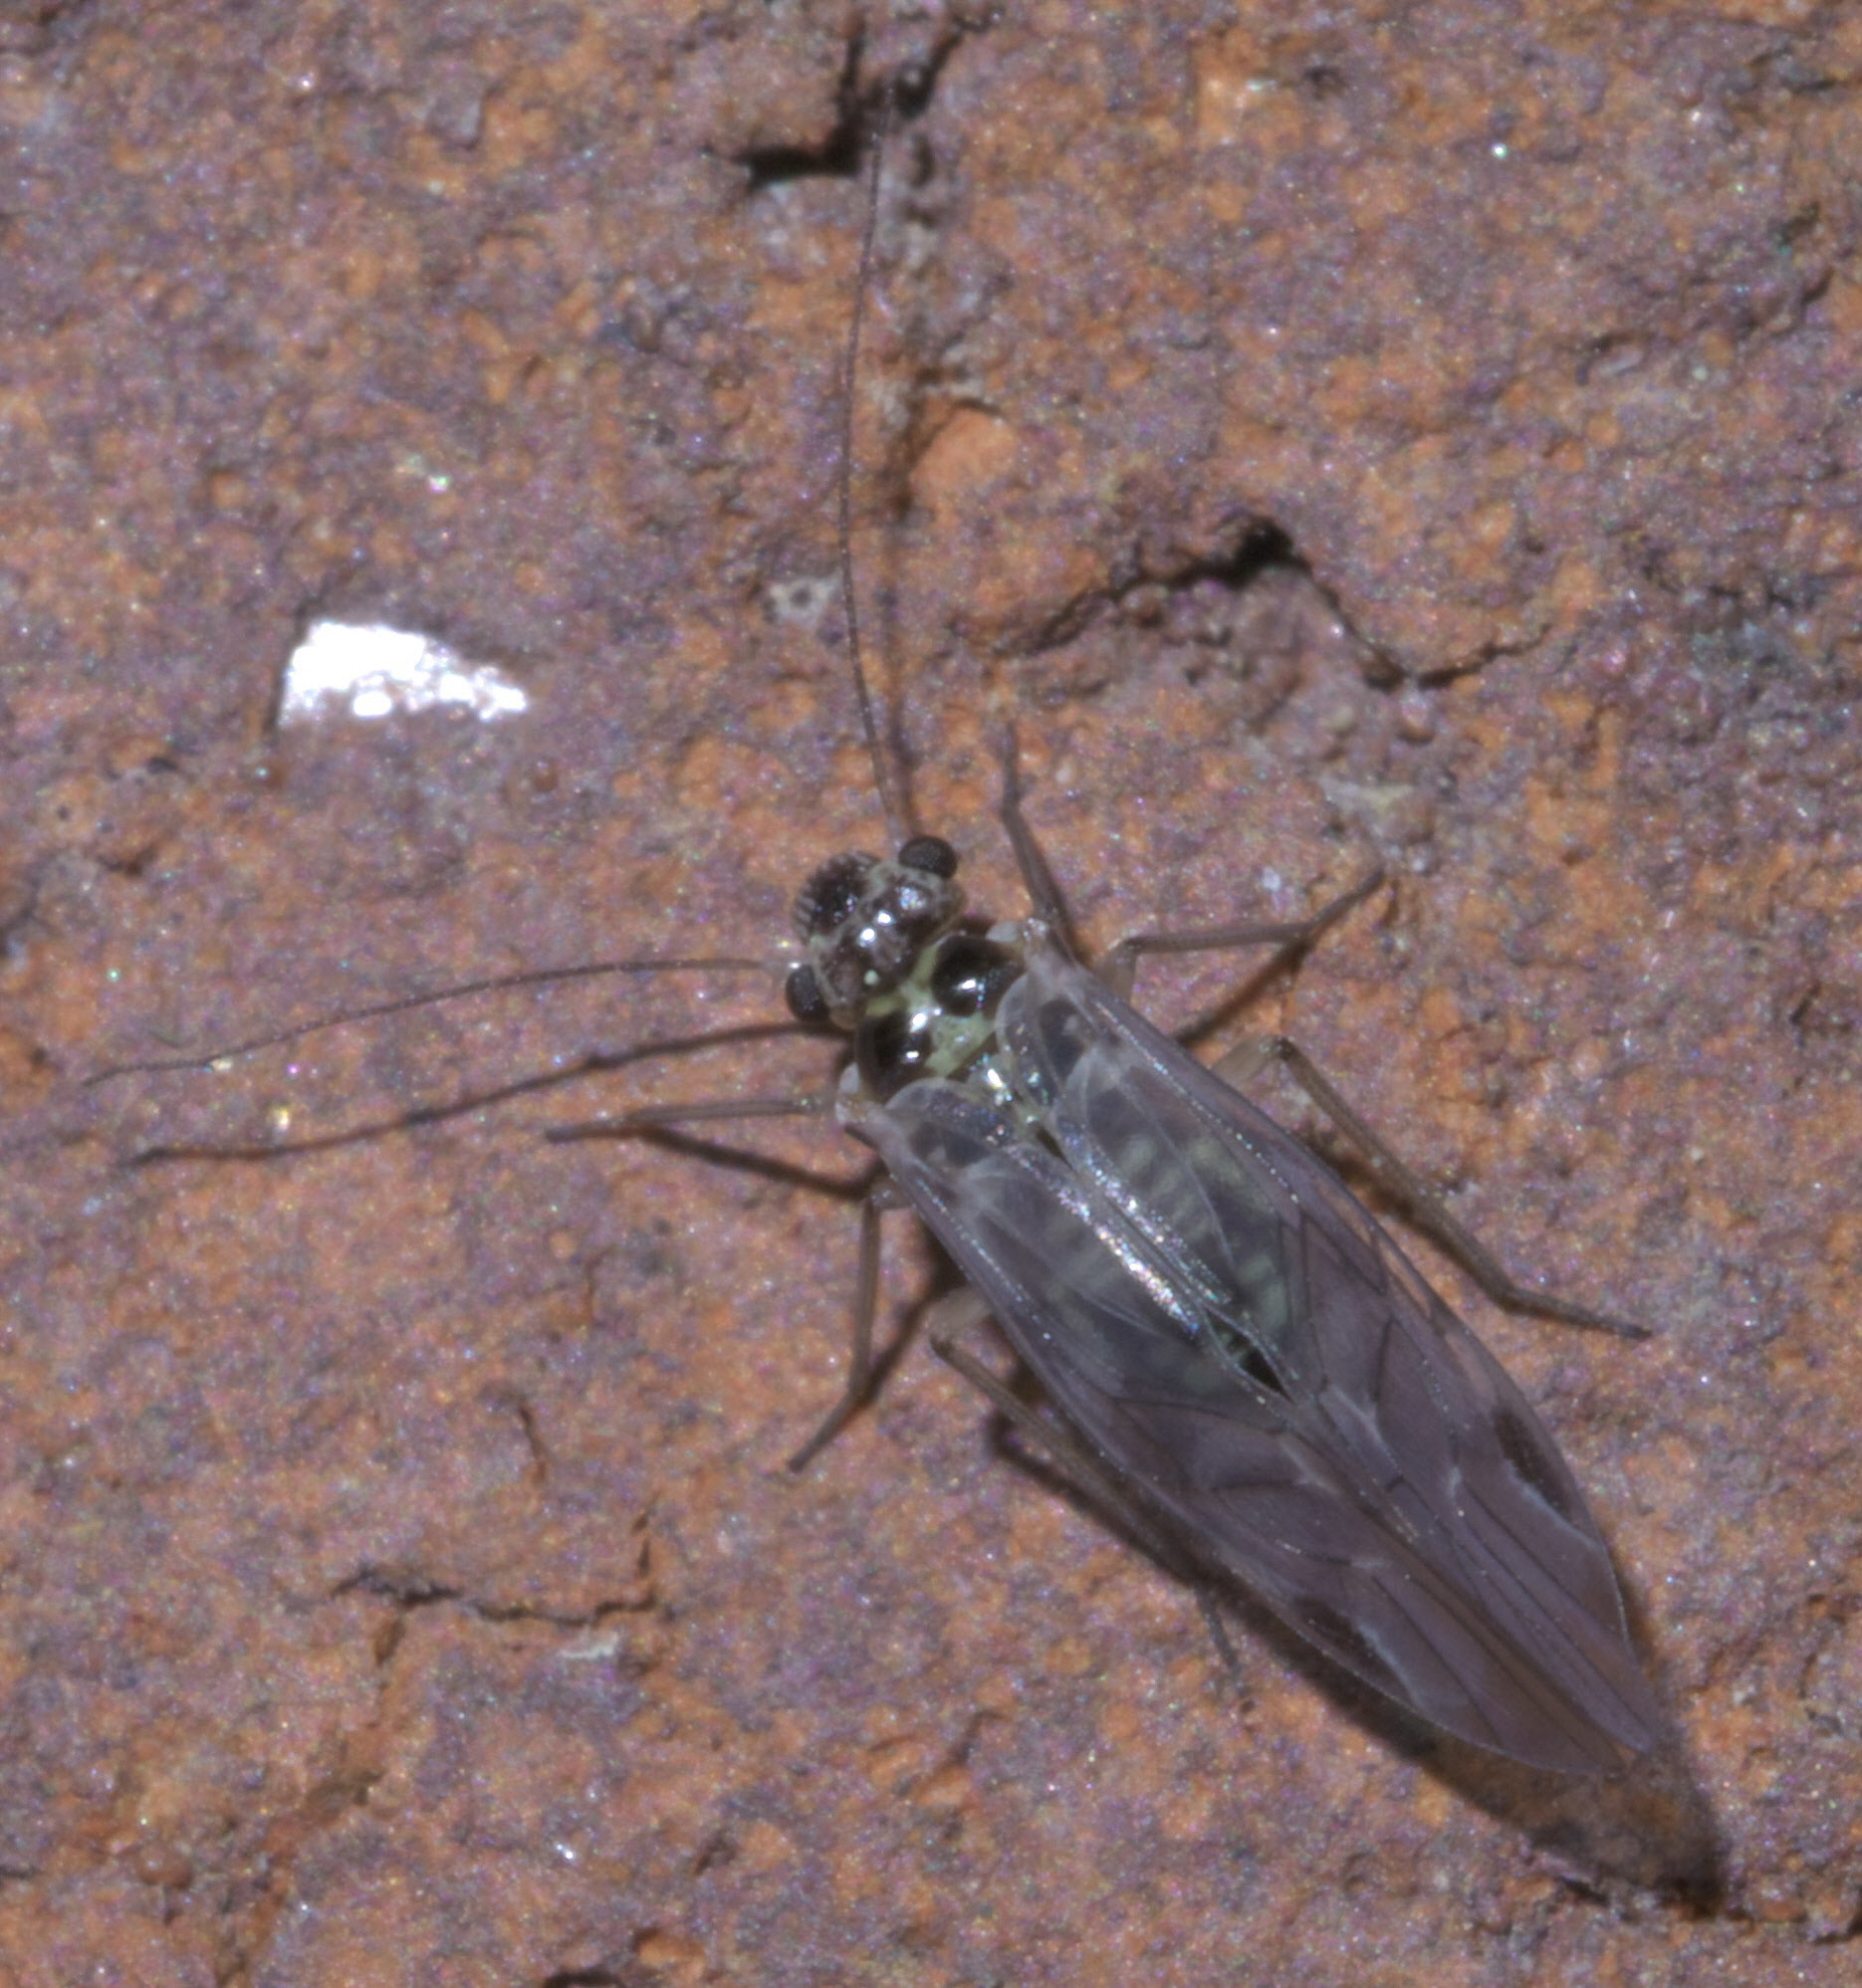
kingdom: Animalia
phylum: Arthropoda
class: Insecta
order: Psocodea
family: Psocidae
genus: Blaste
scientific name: Blaste quieta
